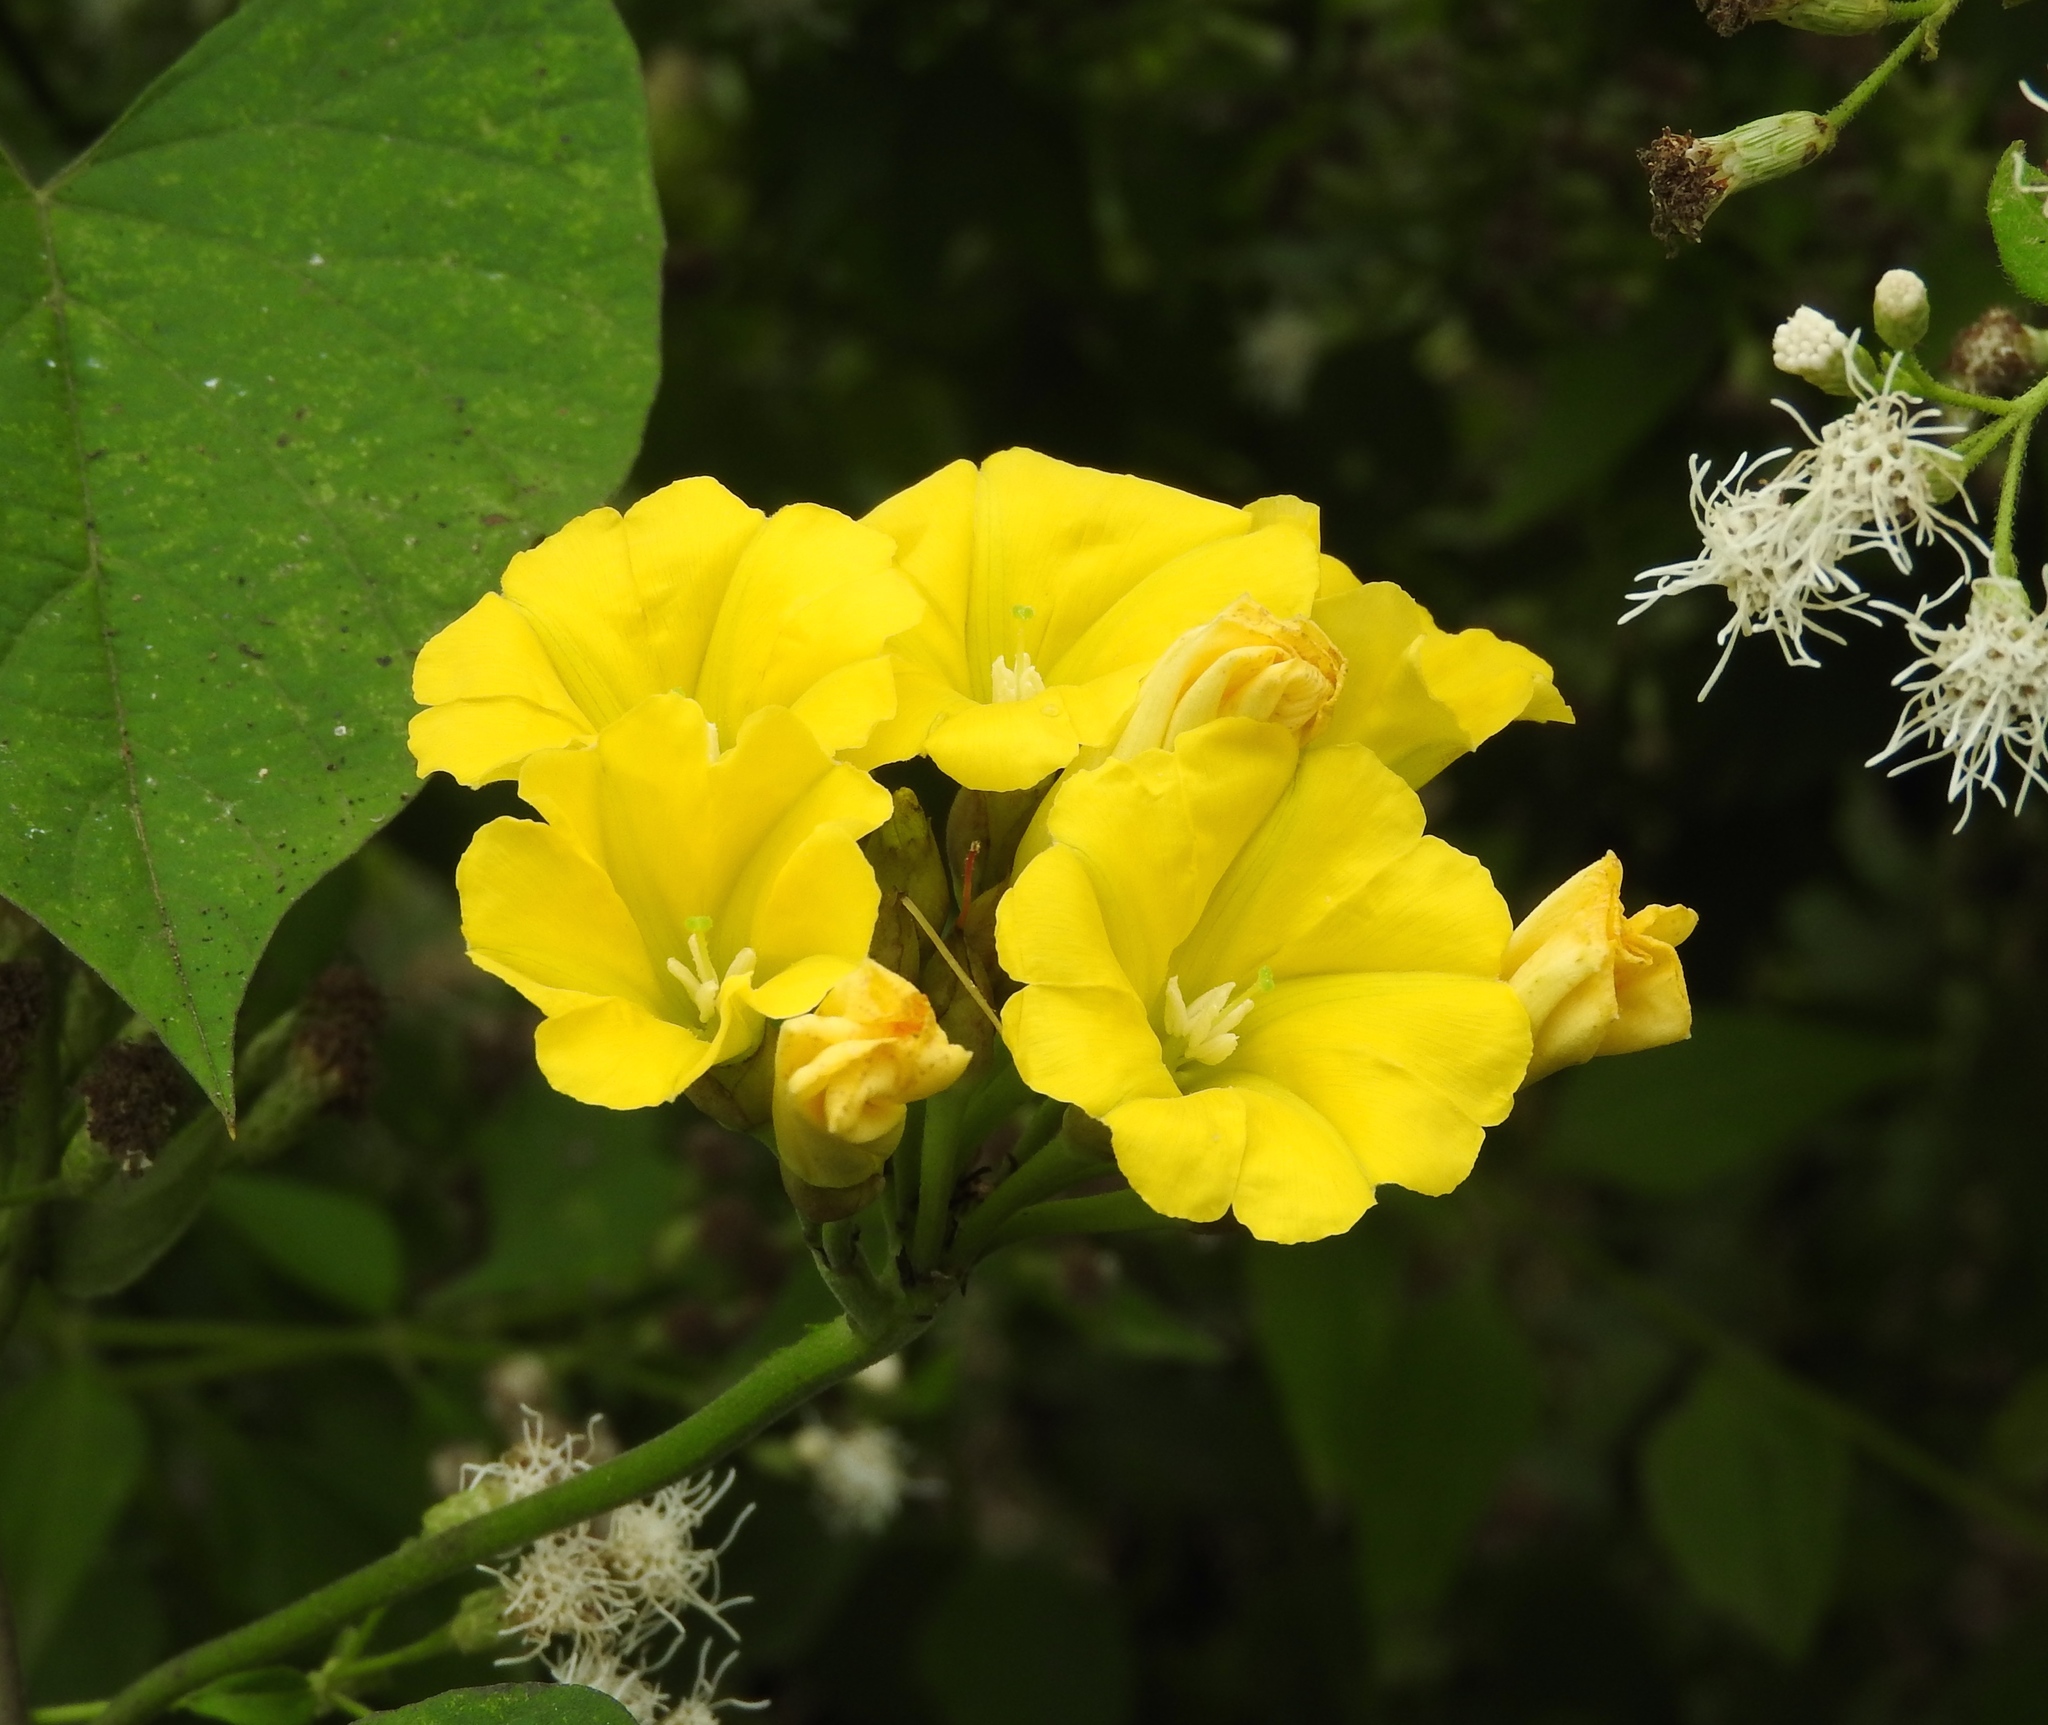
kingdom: Plantae
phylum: Tracheophyta
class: Magnoliopsida
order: Solanales
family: Convolvulaceae
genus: Camonea
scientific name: Camonea umbellata
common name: Hogvine
